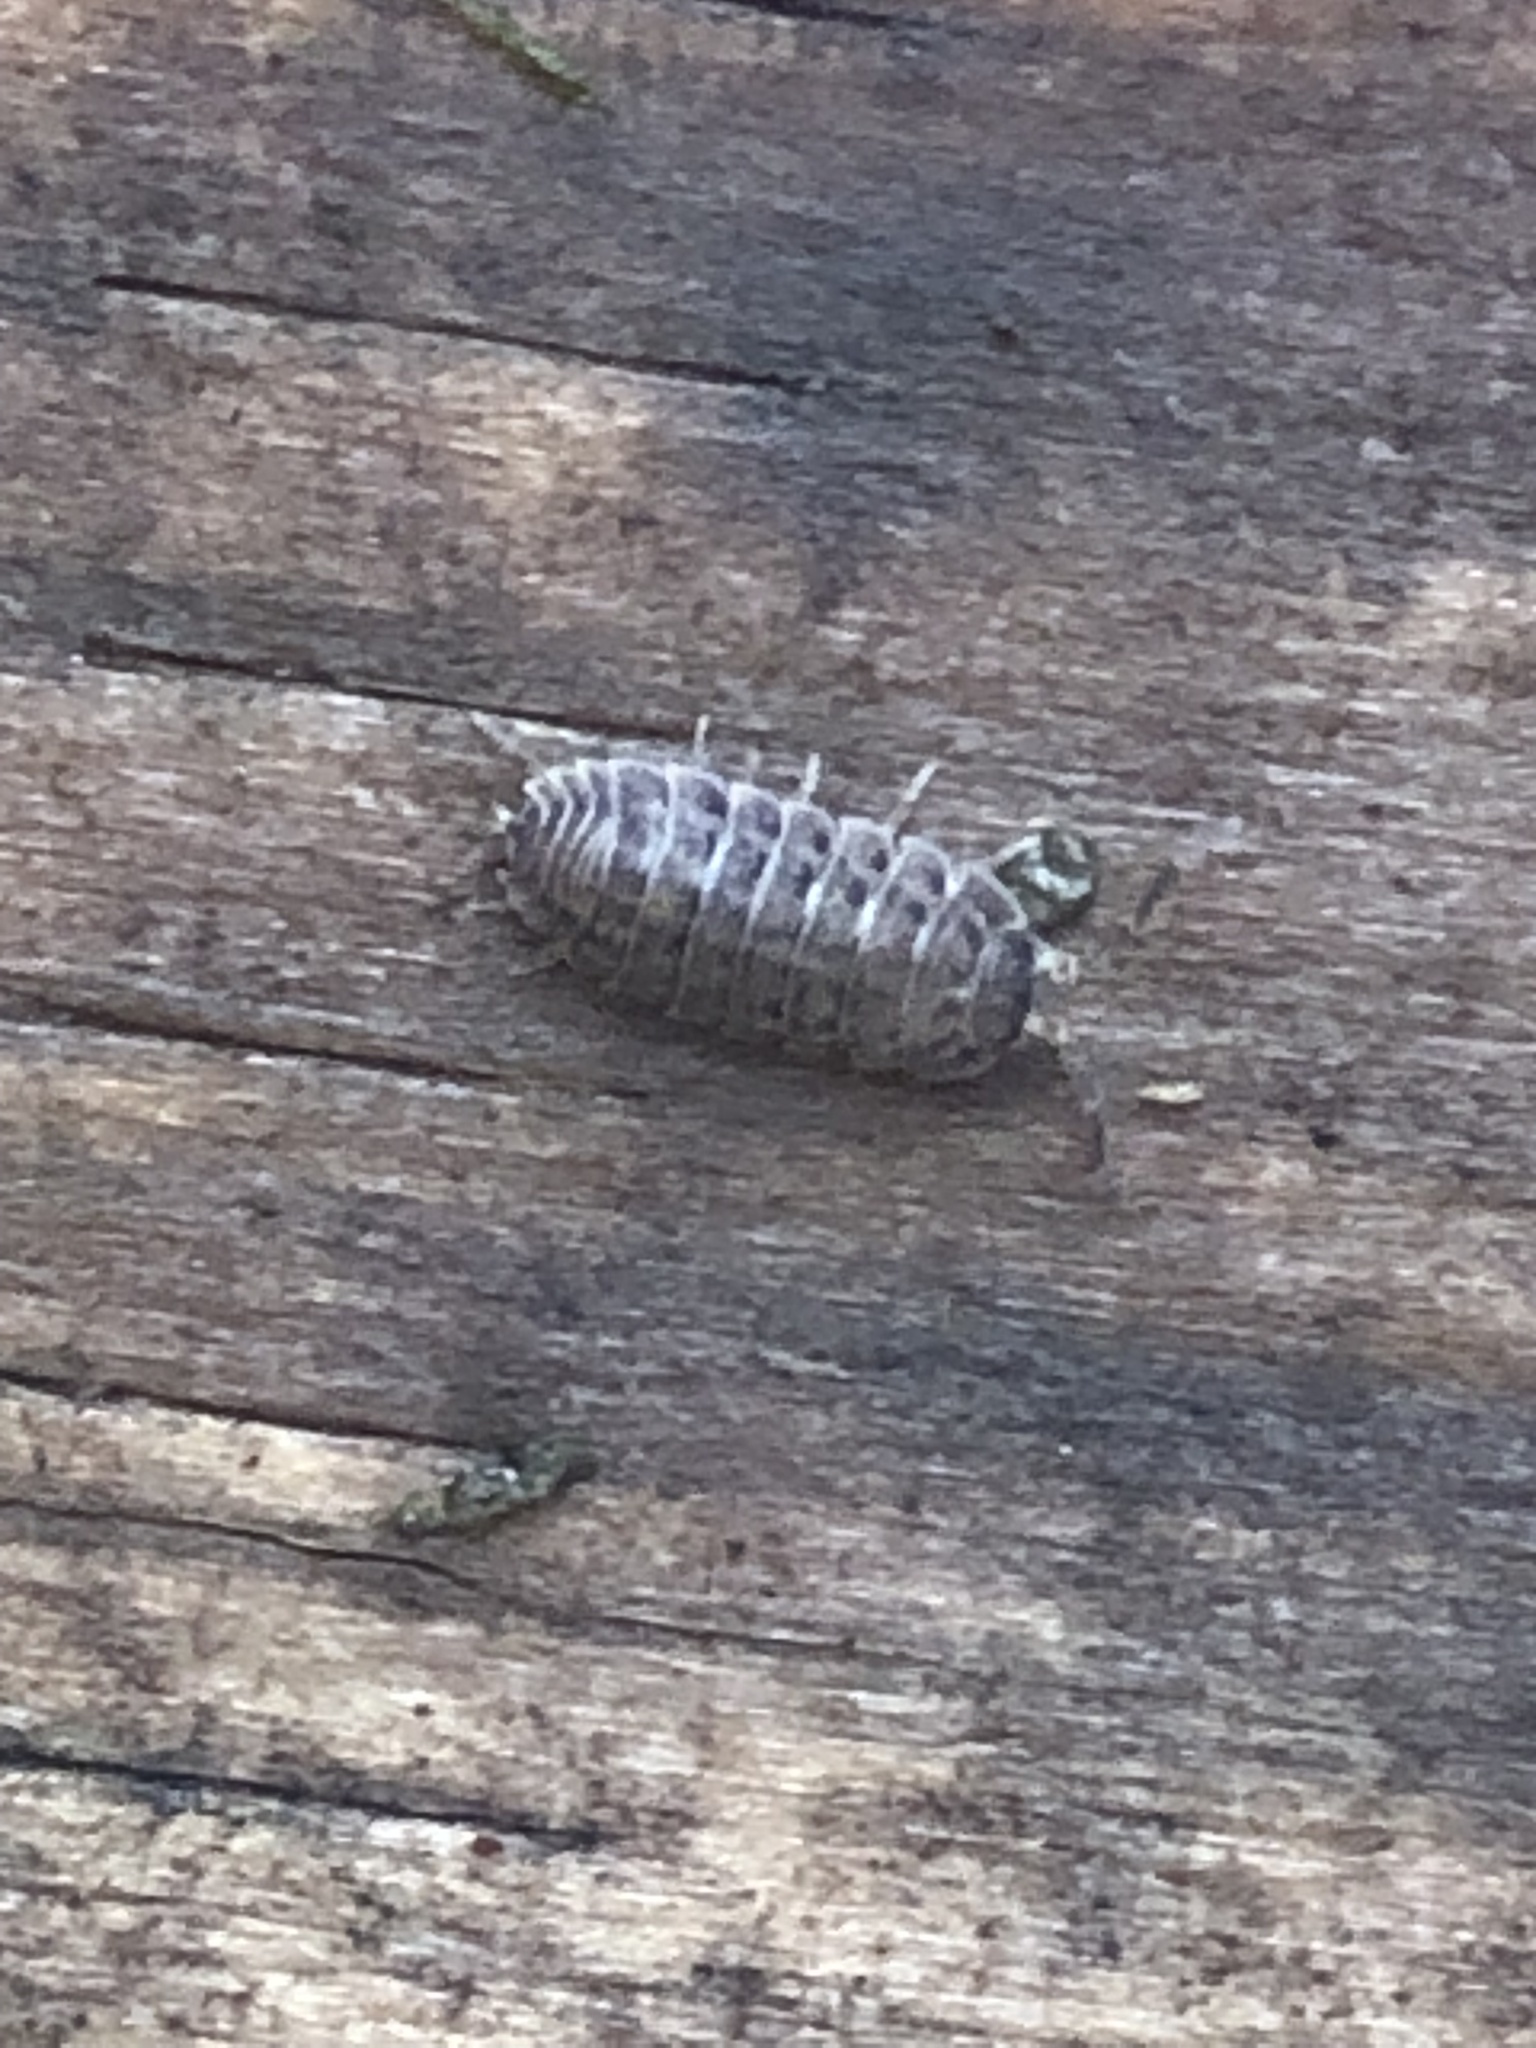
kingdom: Animalia
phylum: Arthropoda
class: Malacostraca
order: Isopoda
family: Trachelipodidae
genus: Trachelipus
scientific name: Trachelipus rathkii
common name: Isopod
